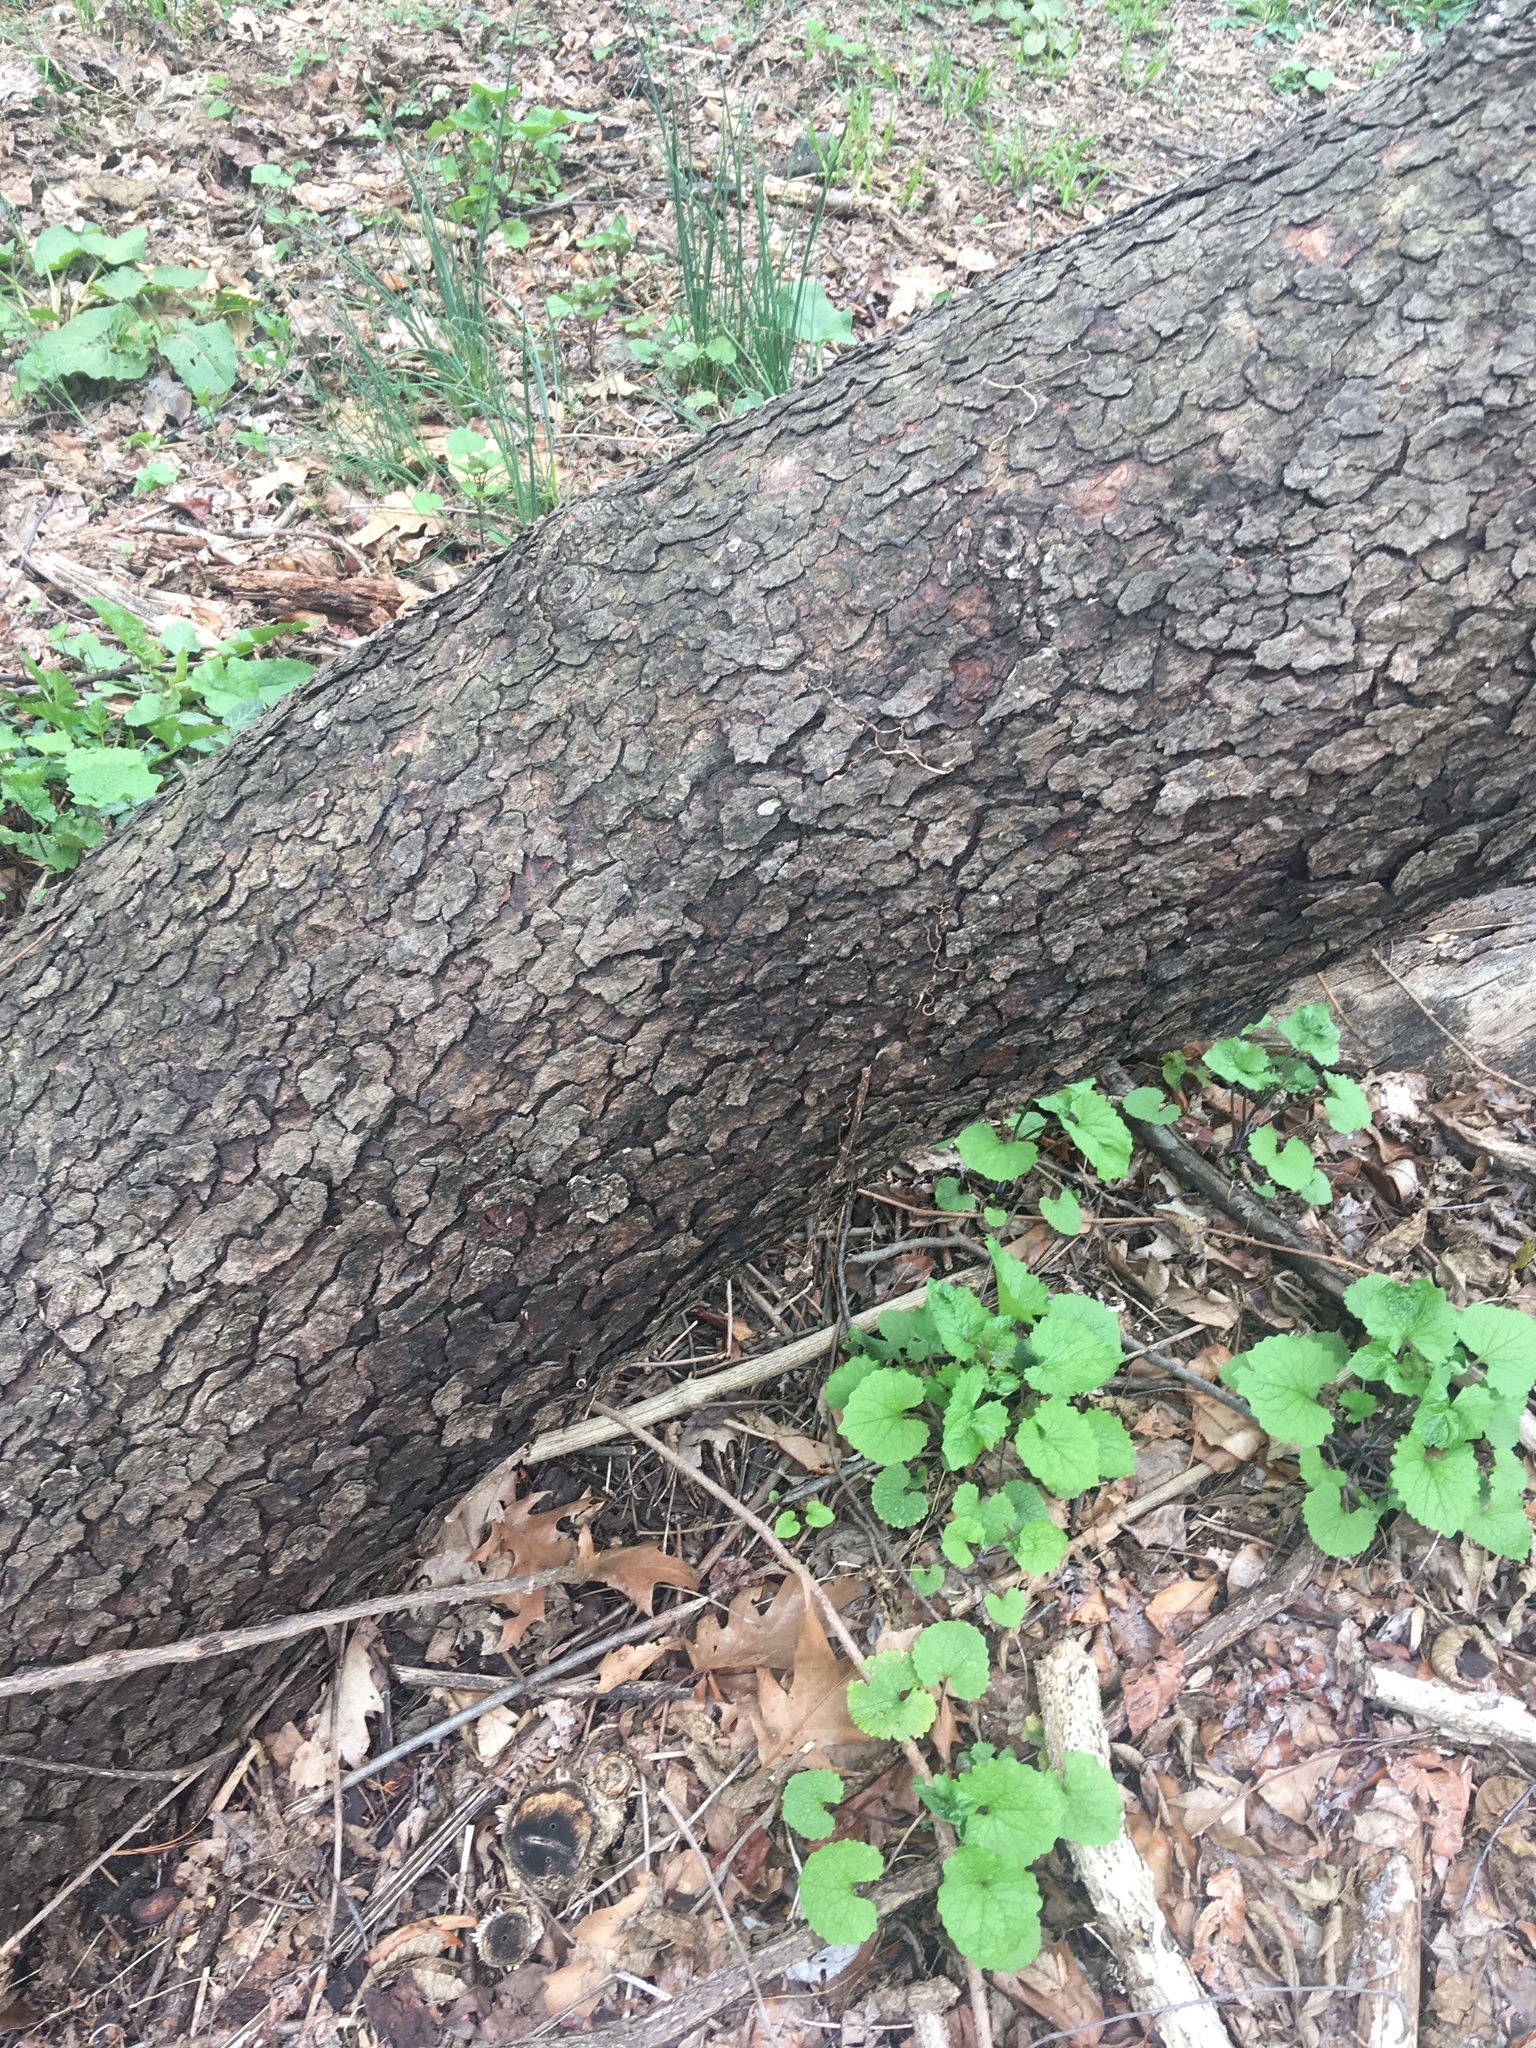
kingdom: Plantae
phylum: Tracheophyta
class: Magnoliopsida
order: Rosales
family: Rosaceae
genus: Prunus
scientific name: Prunus serotina
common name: Black cherry
